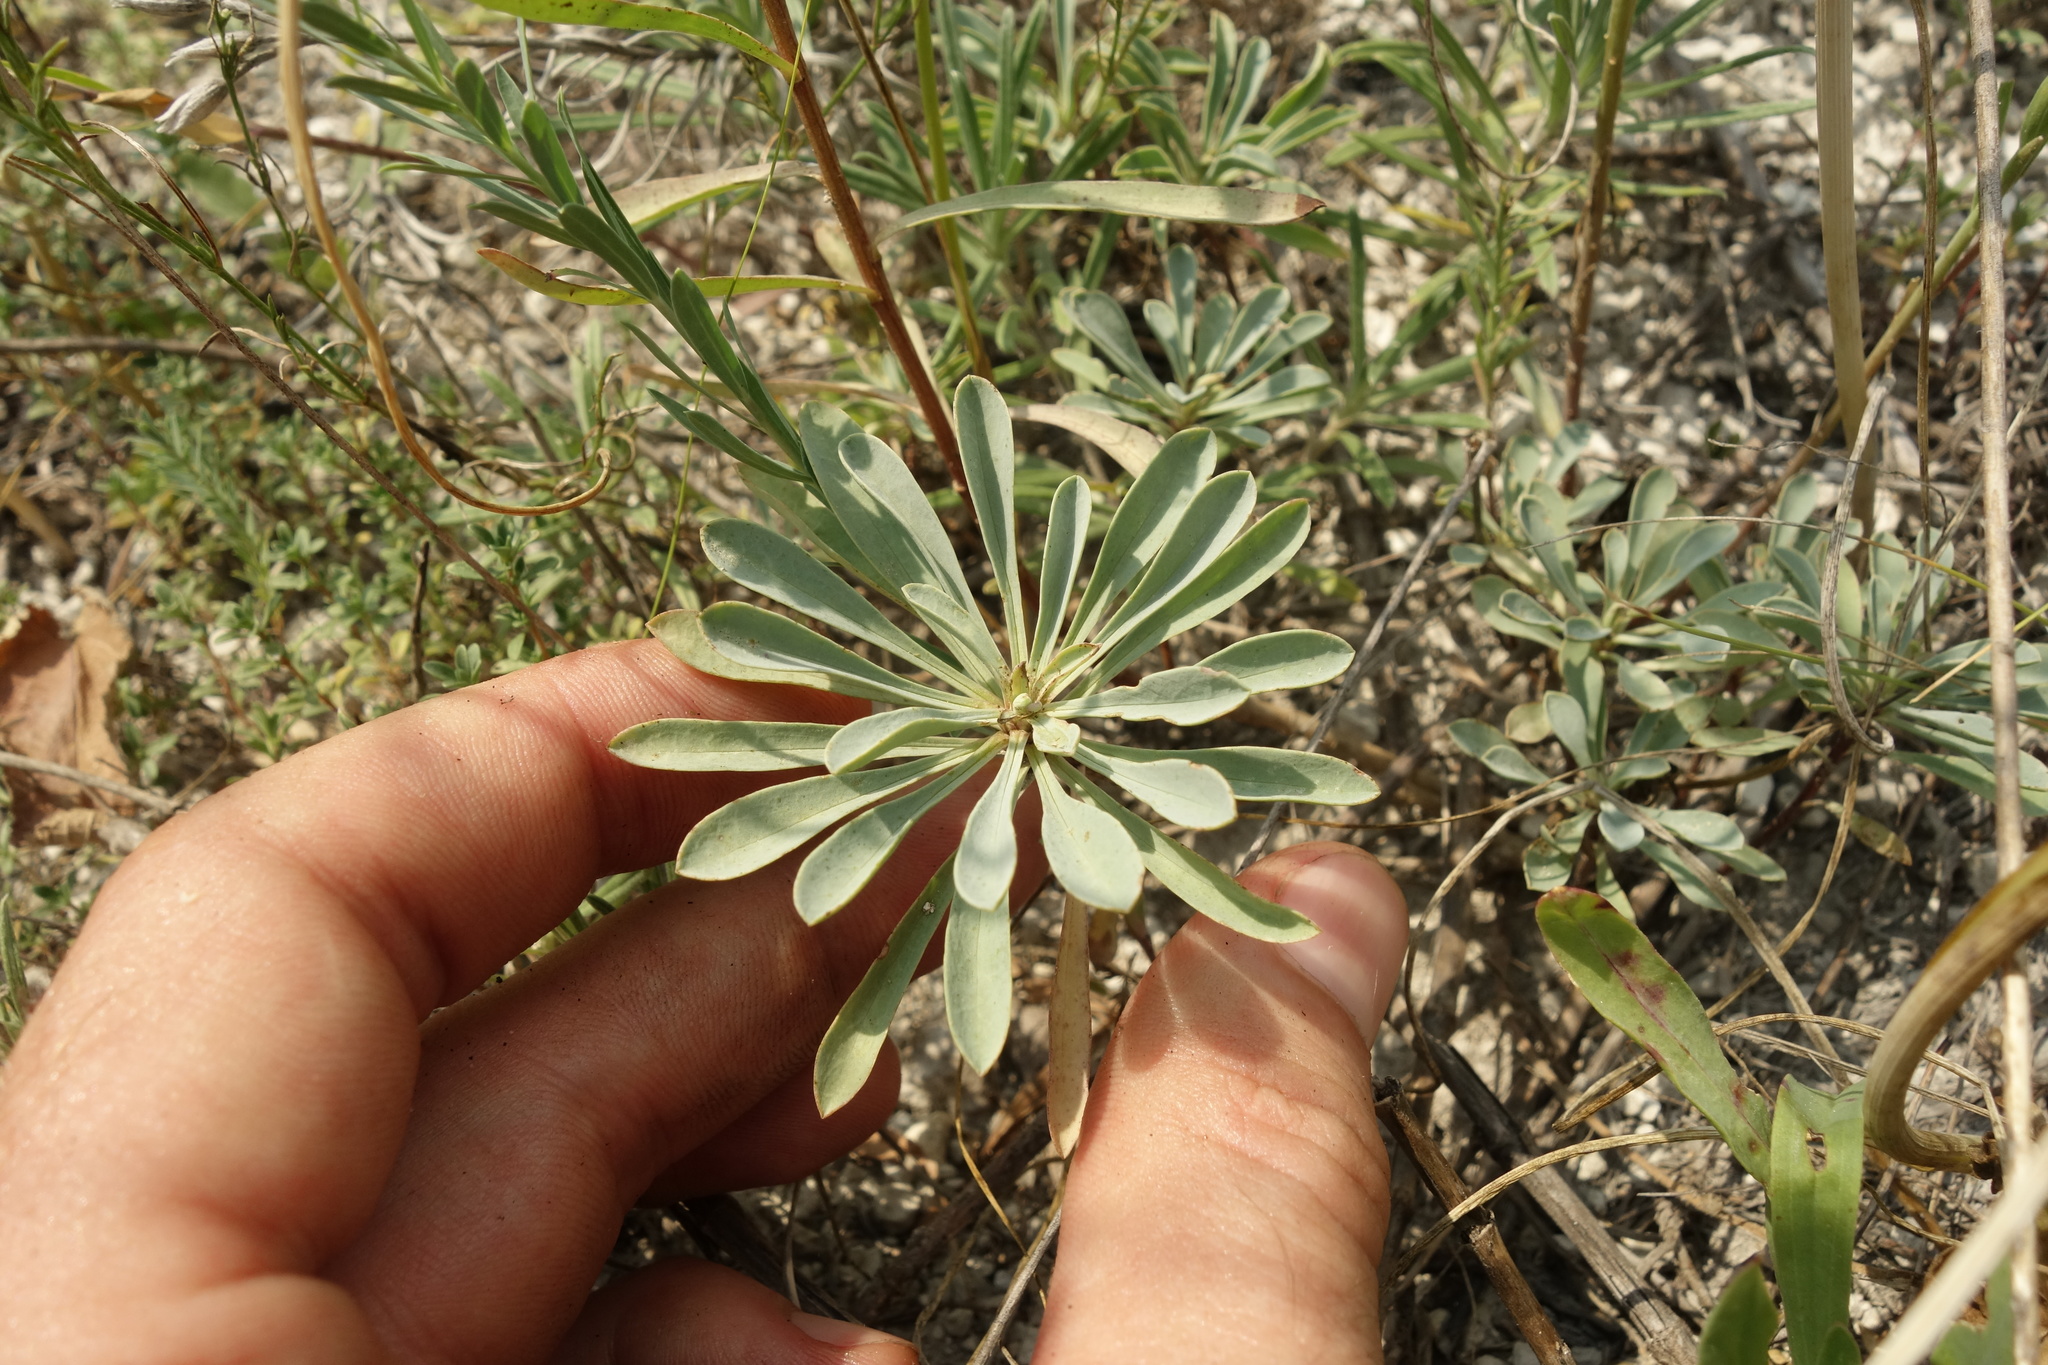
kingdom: Plantae
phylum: Tracheophyta
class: Magnoliopsida
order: Malpighiales
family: Linaceae
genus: Linum
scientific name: Linum ucranicum
